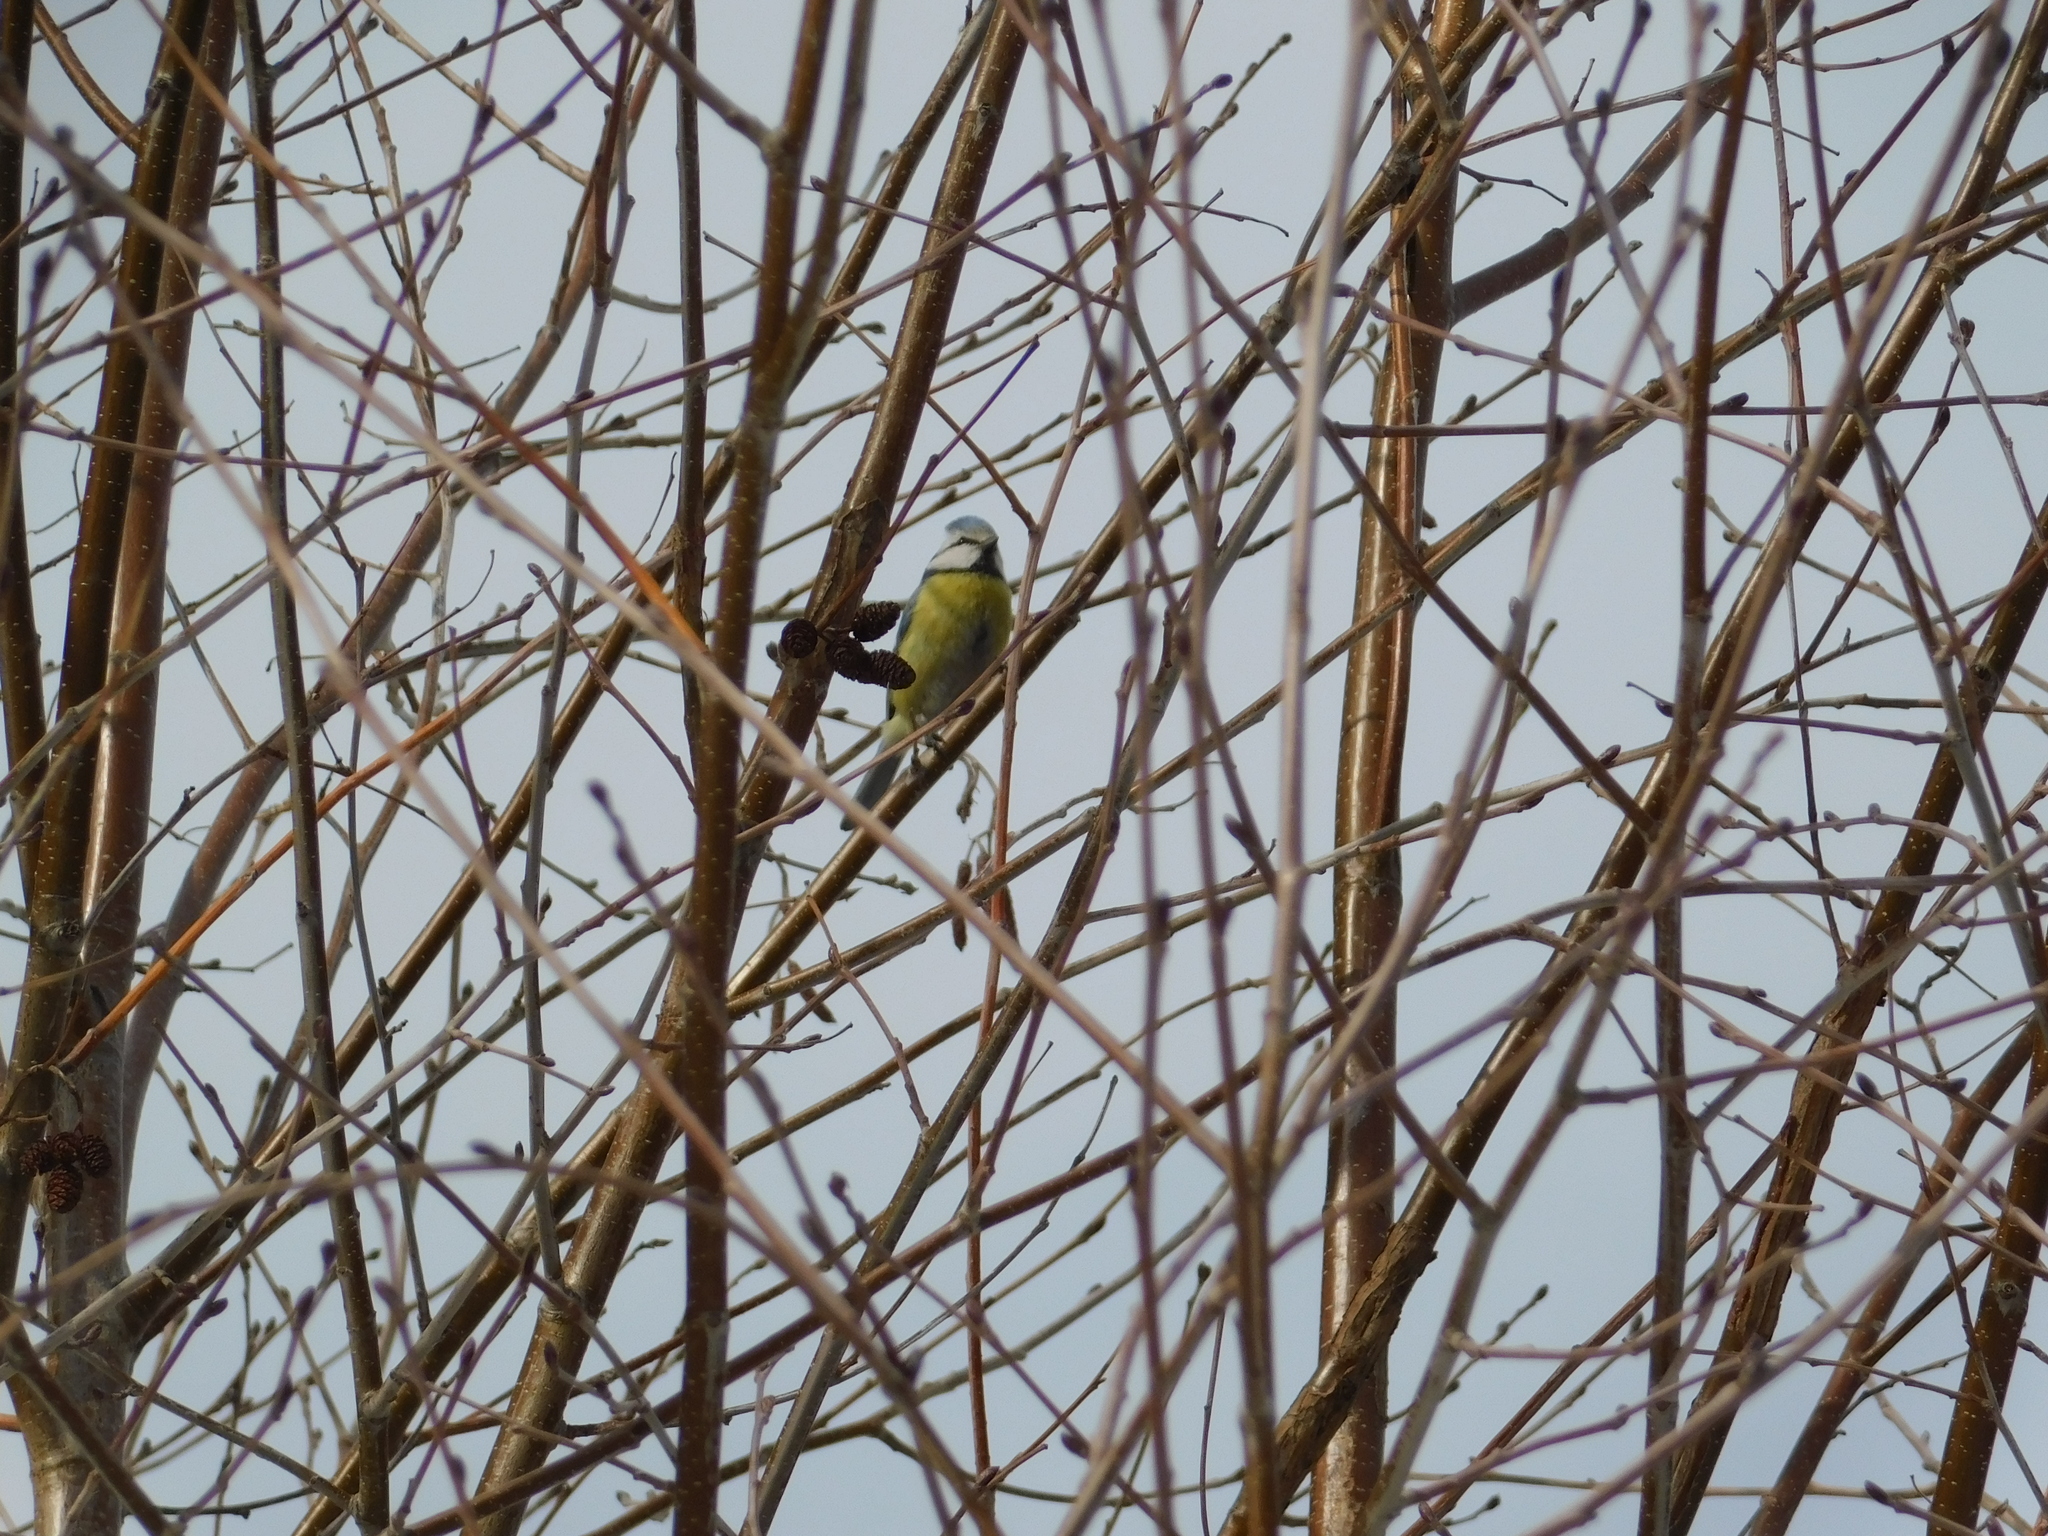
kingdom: Animalia
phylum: Chordata
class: Aves
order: Passeriformes
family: Paridae
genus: Cyanistes
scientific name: Cyanistes caeruleus
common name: Eurasian blue tit
